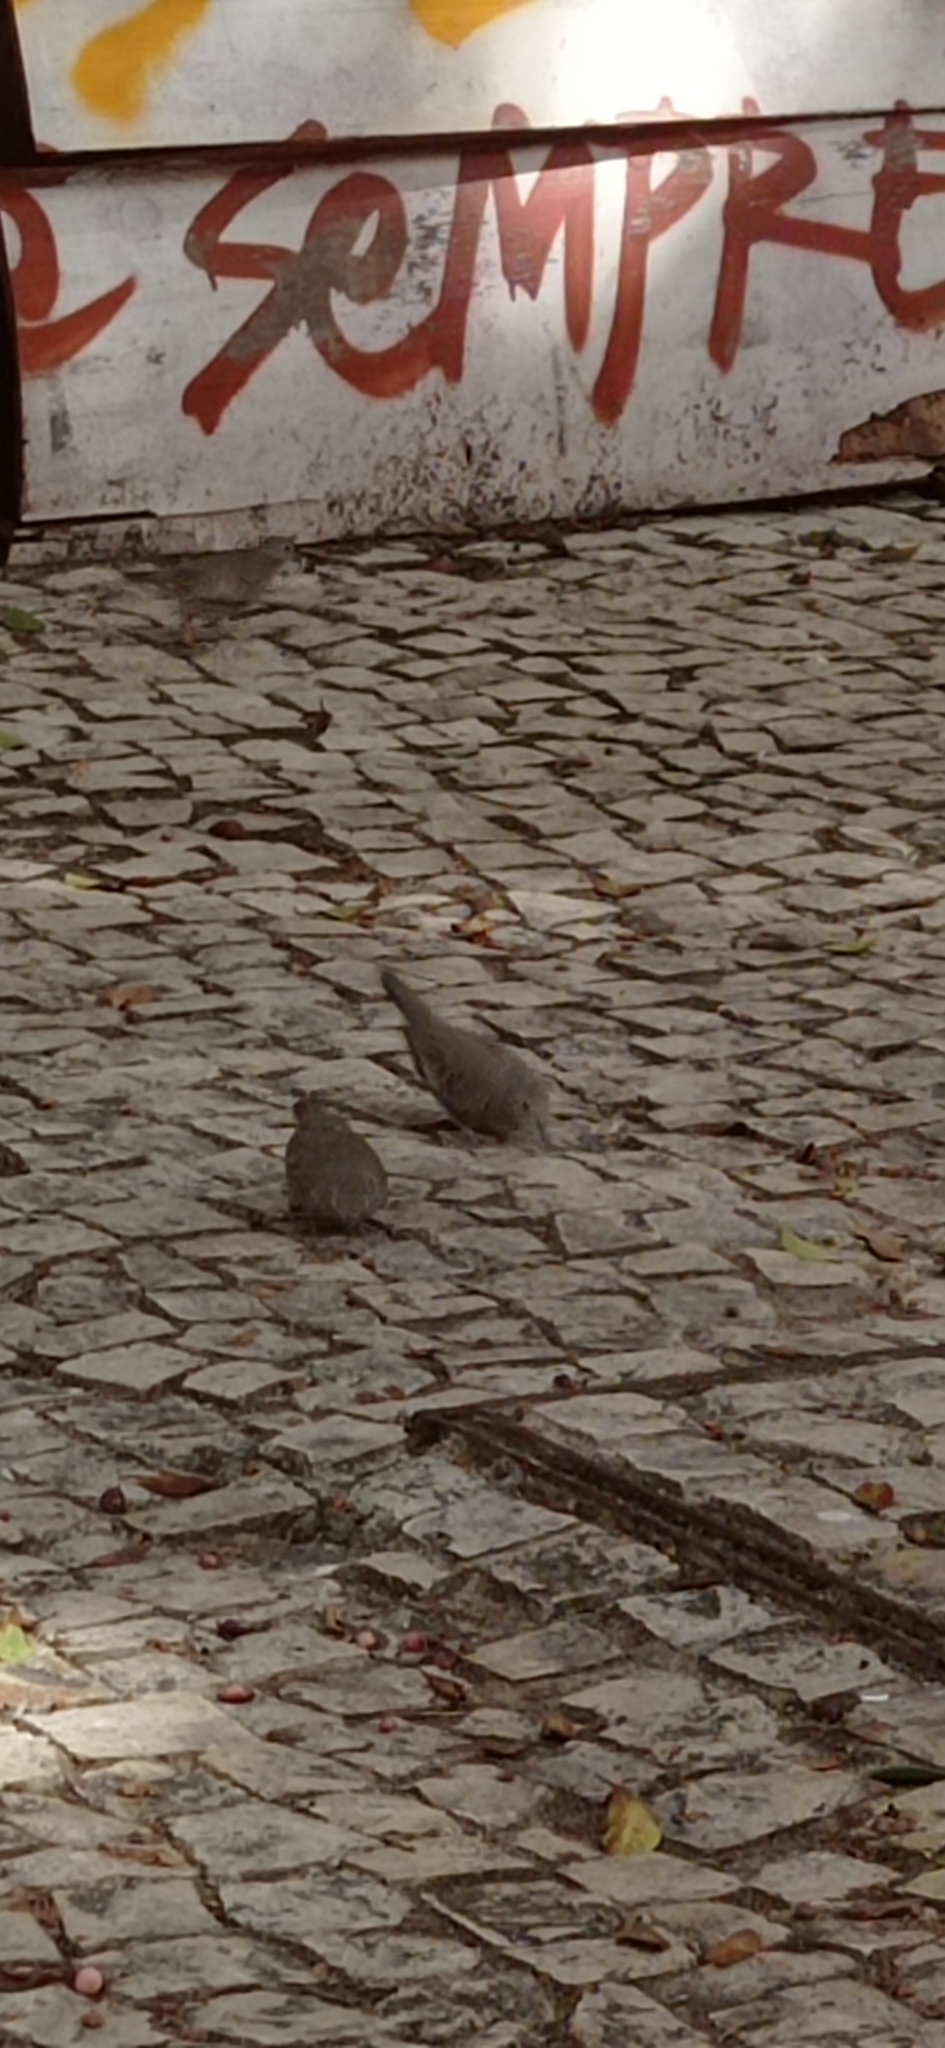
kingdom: Animalia
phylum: Chordata
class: Aves
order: Columbiformes
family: Columbidae
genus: Columbina
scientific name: Columbina passerina
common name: Common ground-dove
